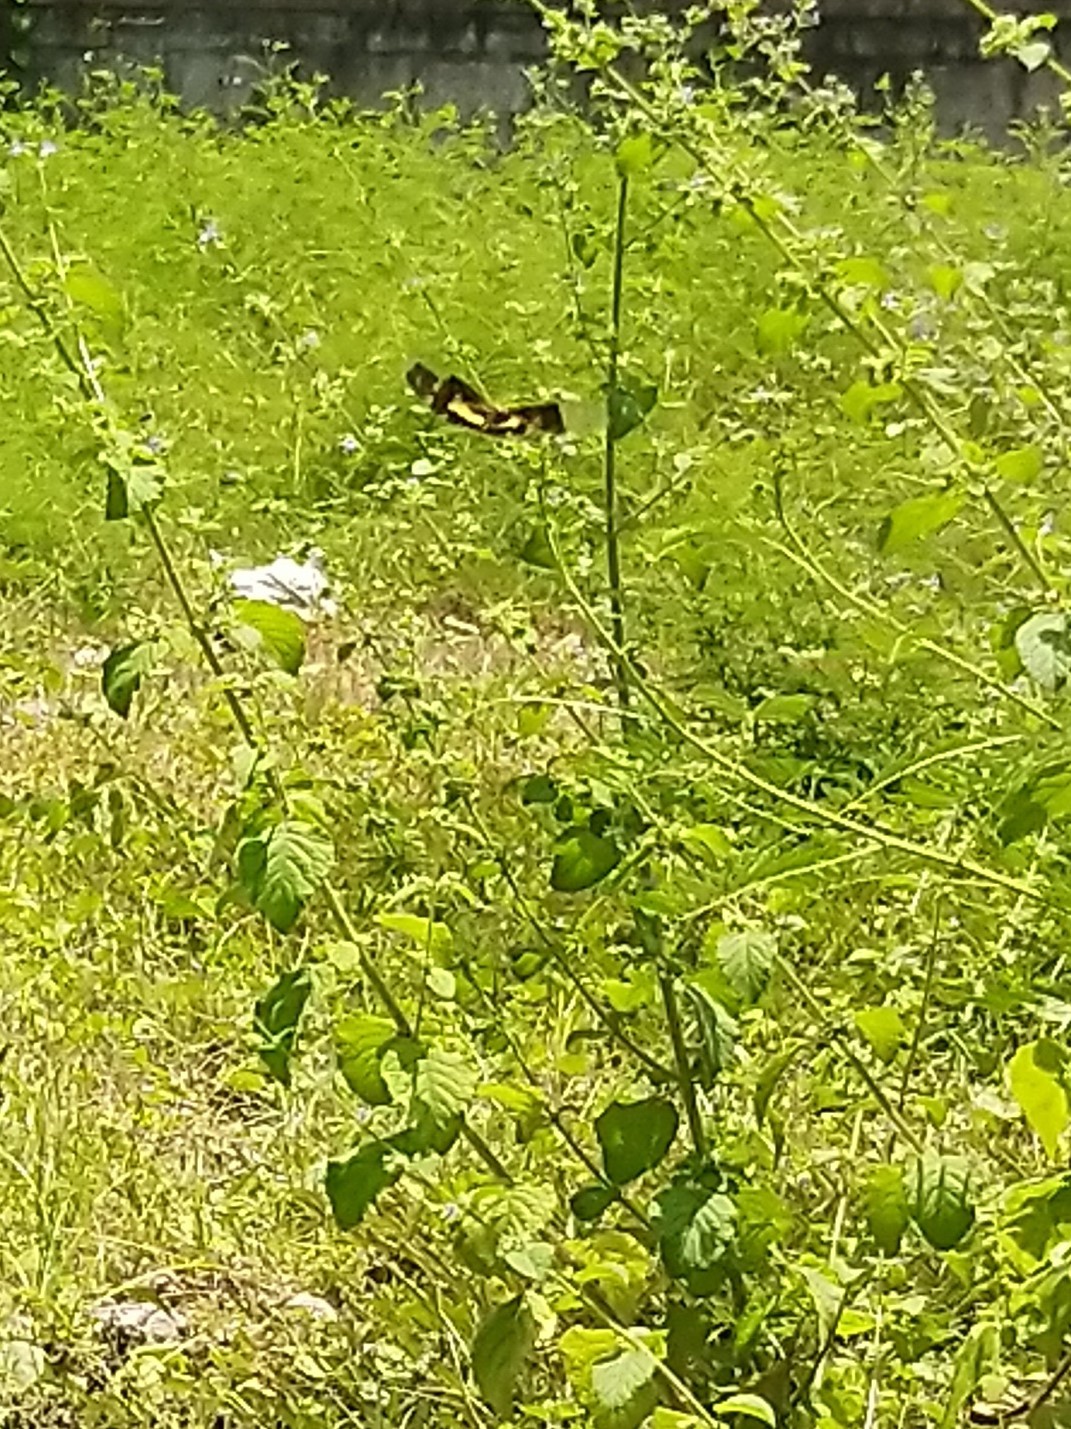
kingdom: Animalia
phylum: Arthropoda
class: Insecta
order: Odonata
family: Libellulidae
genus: Rhyothemis
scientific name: Rhyothemis variegata
